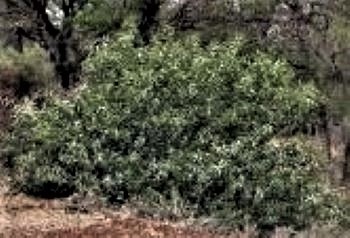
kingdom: Plantae
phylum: Tracheophyta
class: Magnoliopsida
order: Fabales
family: Fabaceae
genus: Vachellia
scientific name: Vachellia karroo
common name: Sweet thorn
